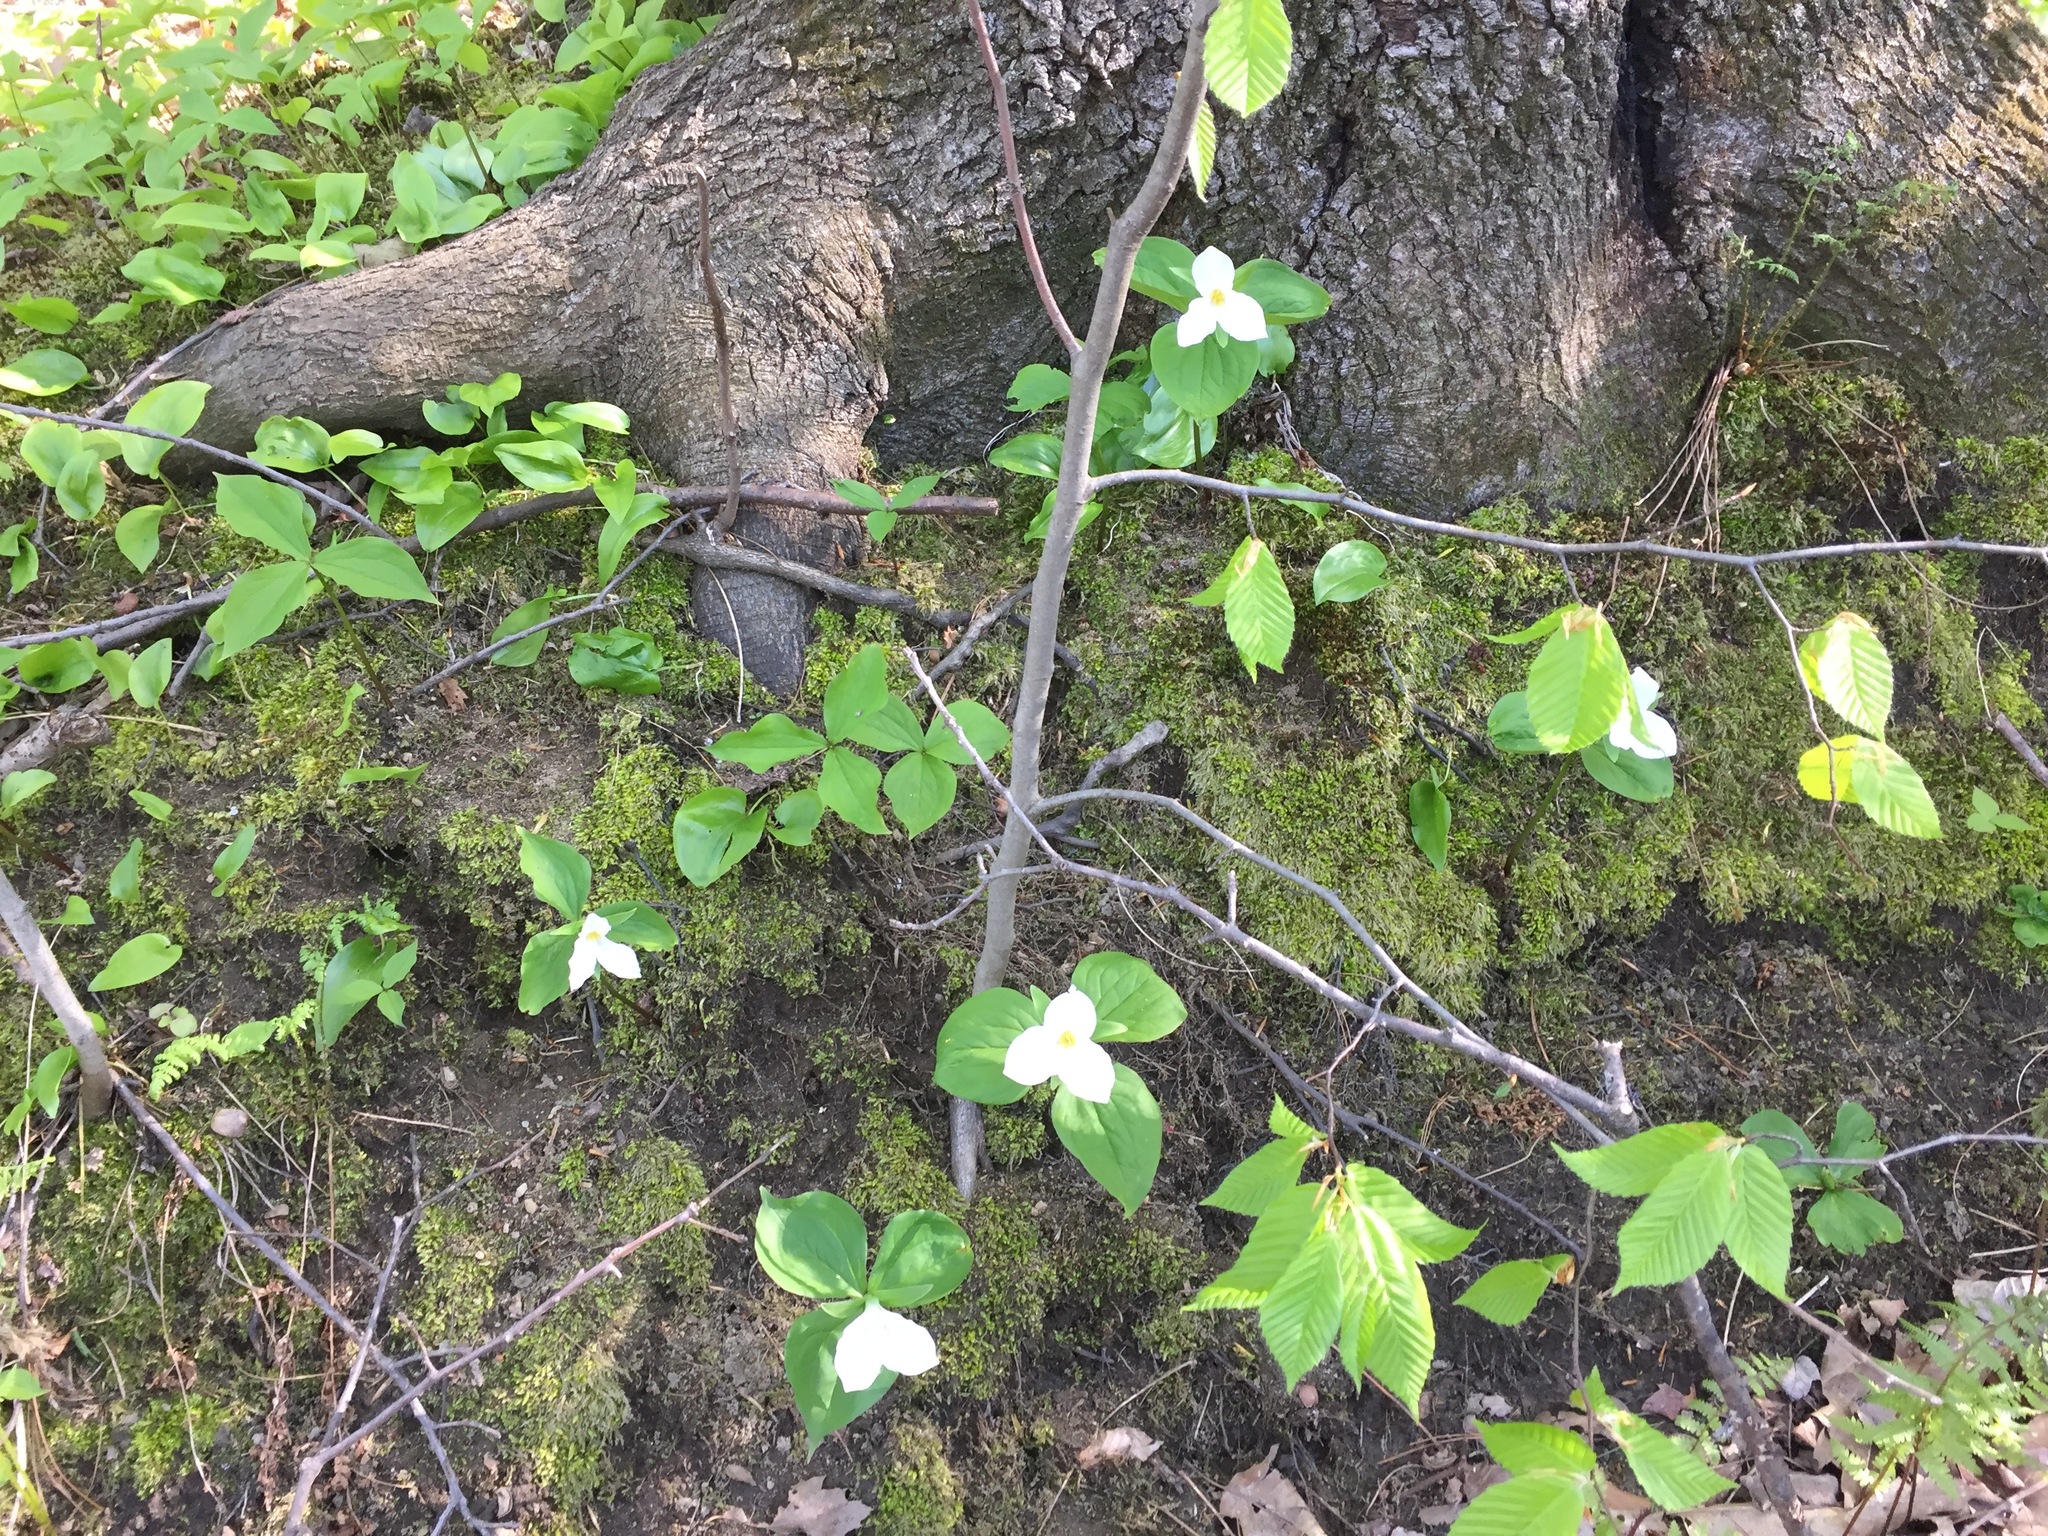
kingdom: Plantae
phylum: Tracheophyta
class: Liliopsida
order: Liliales
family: Melanthiaceae
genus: Trillium
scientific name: Trillium grandiflorum
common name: Great white trillium
